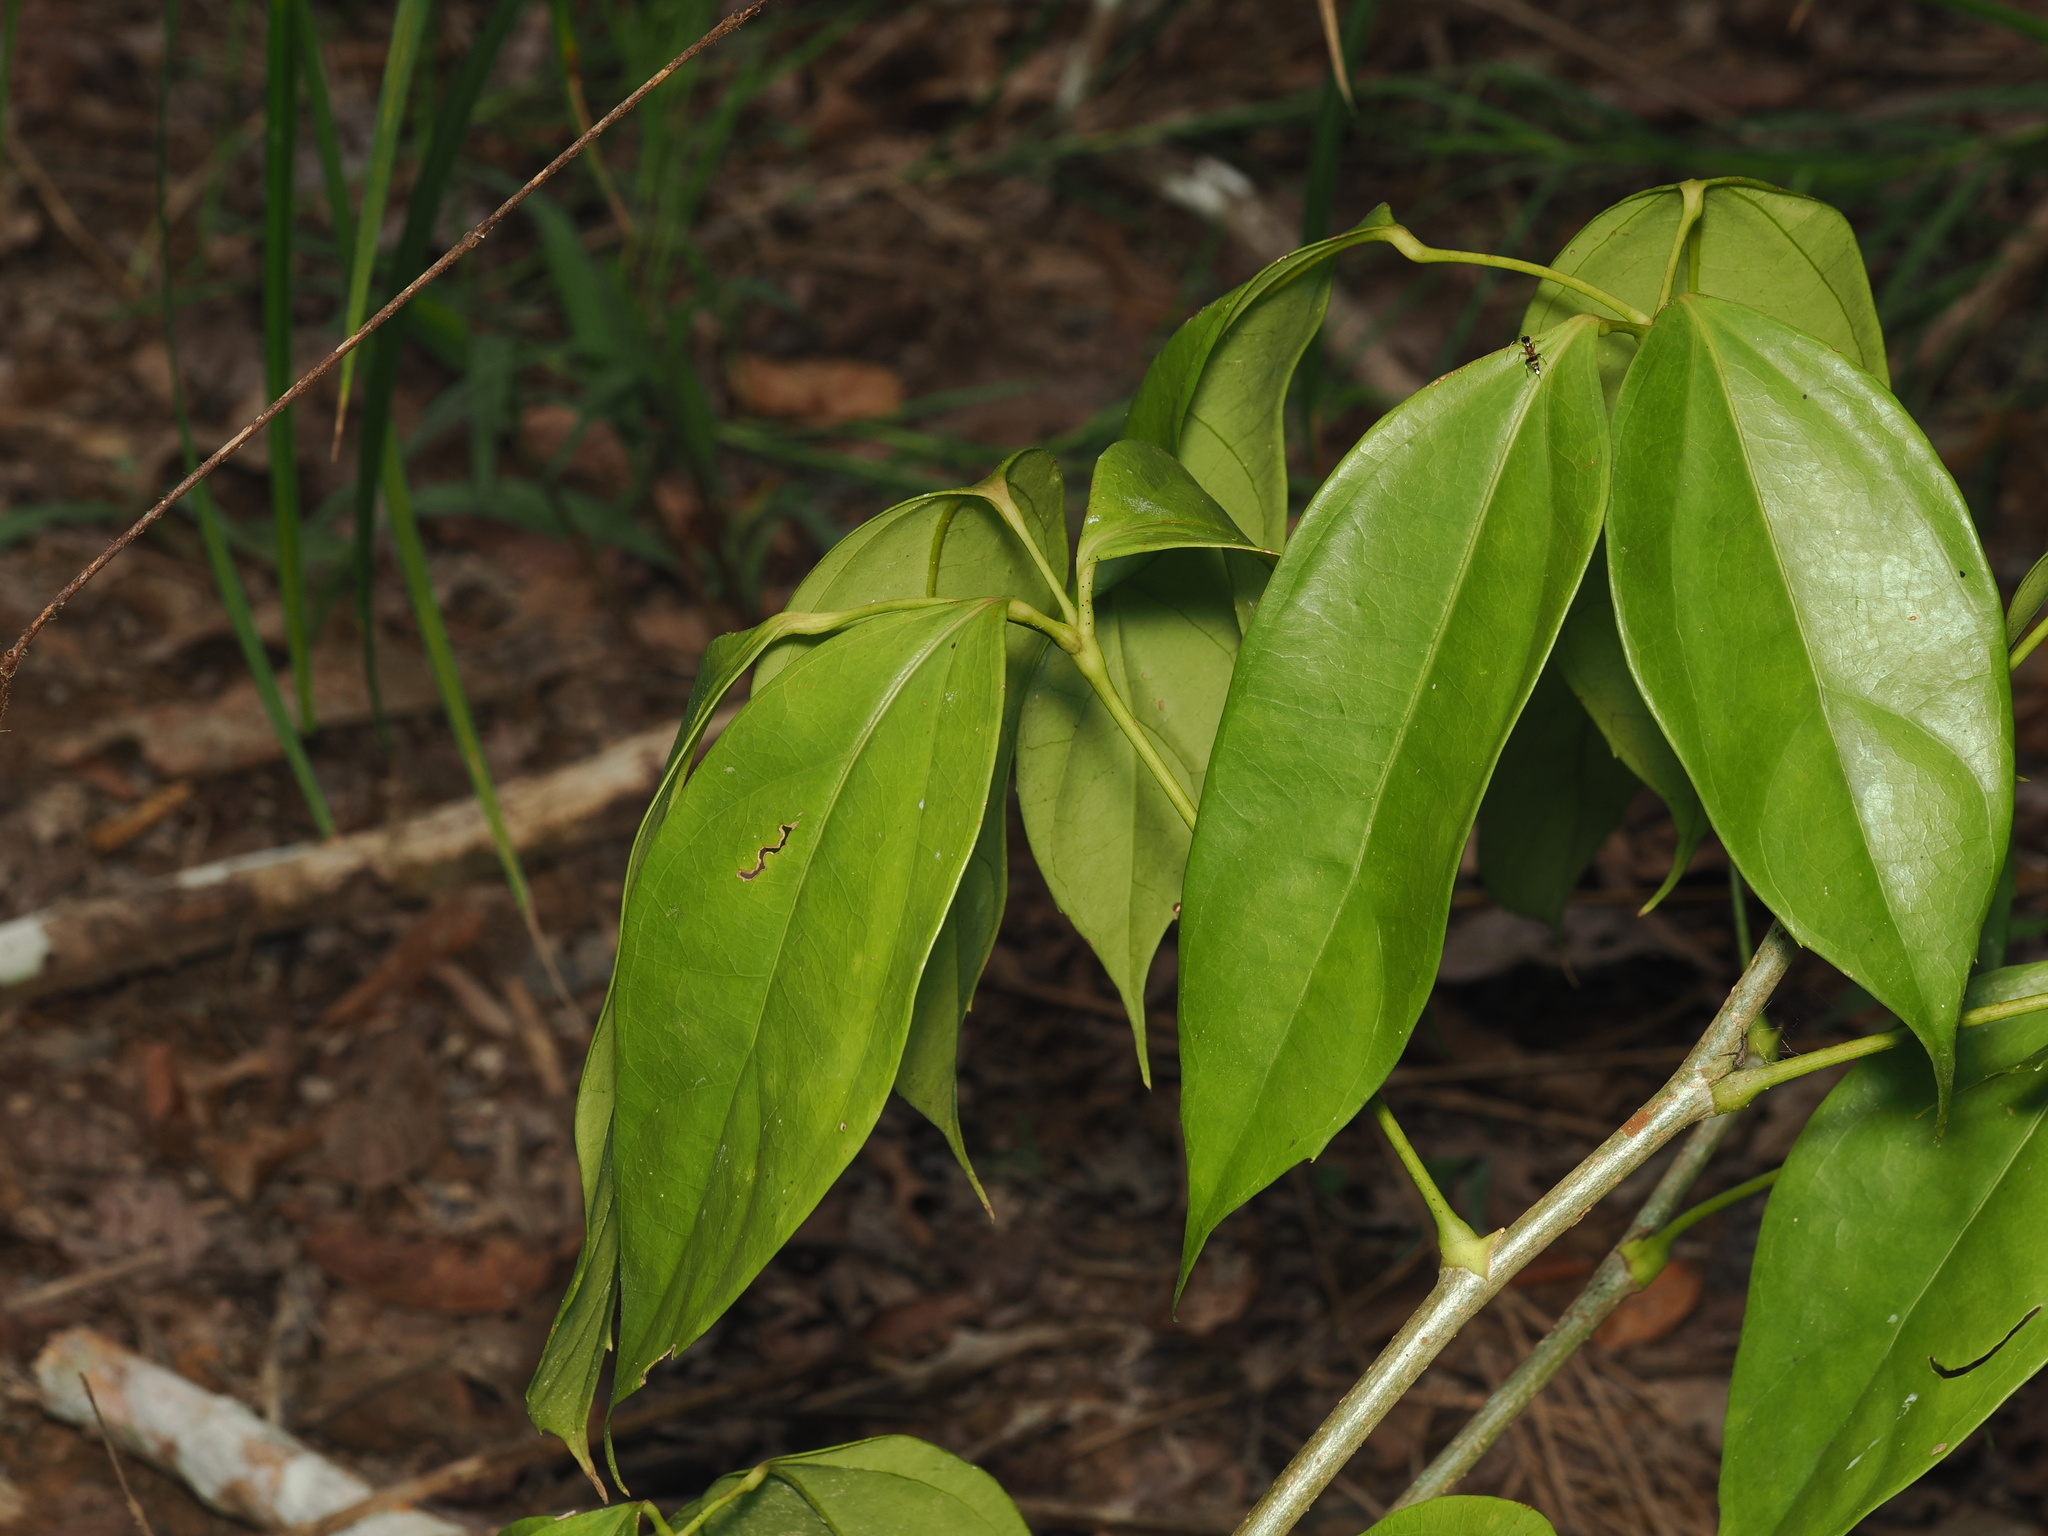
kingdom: Plantae
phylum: Tracheophyta
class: Magnoliopsida
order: Apiales
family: Araliaceae
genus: Heptapleurum
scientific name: Heptapleurum ellipticum
